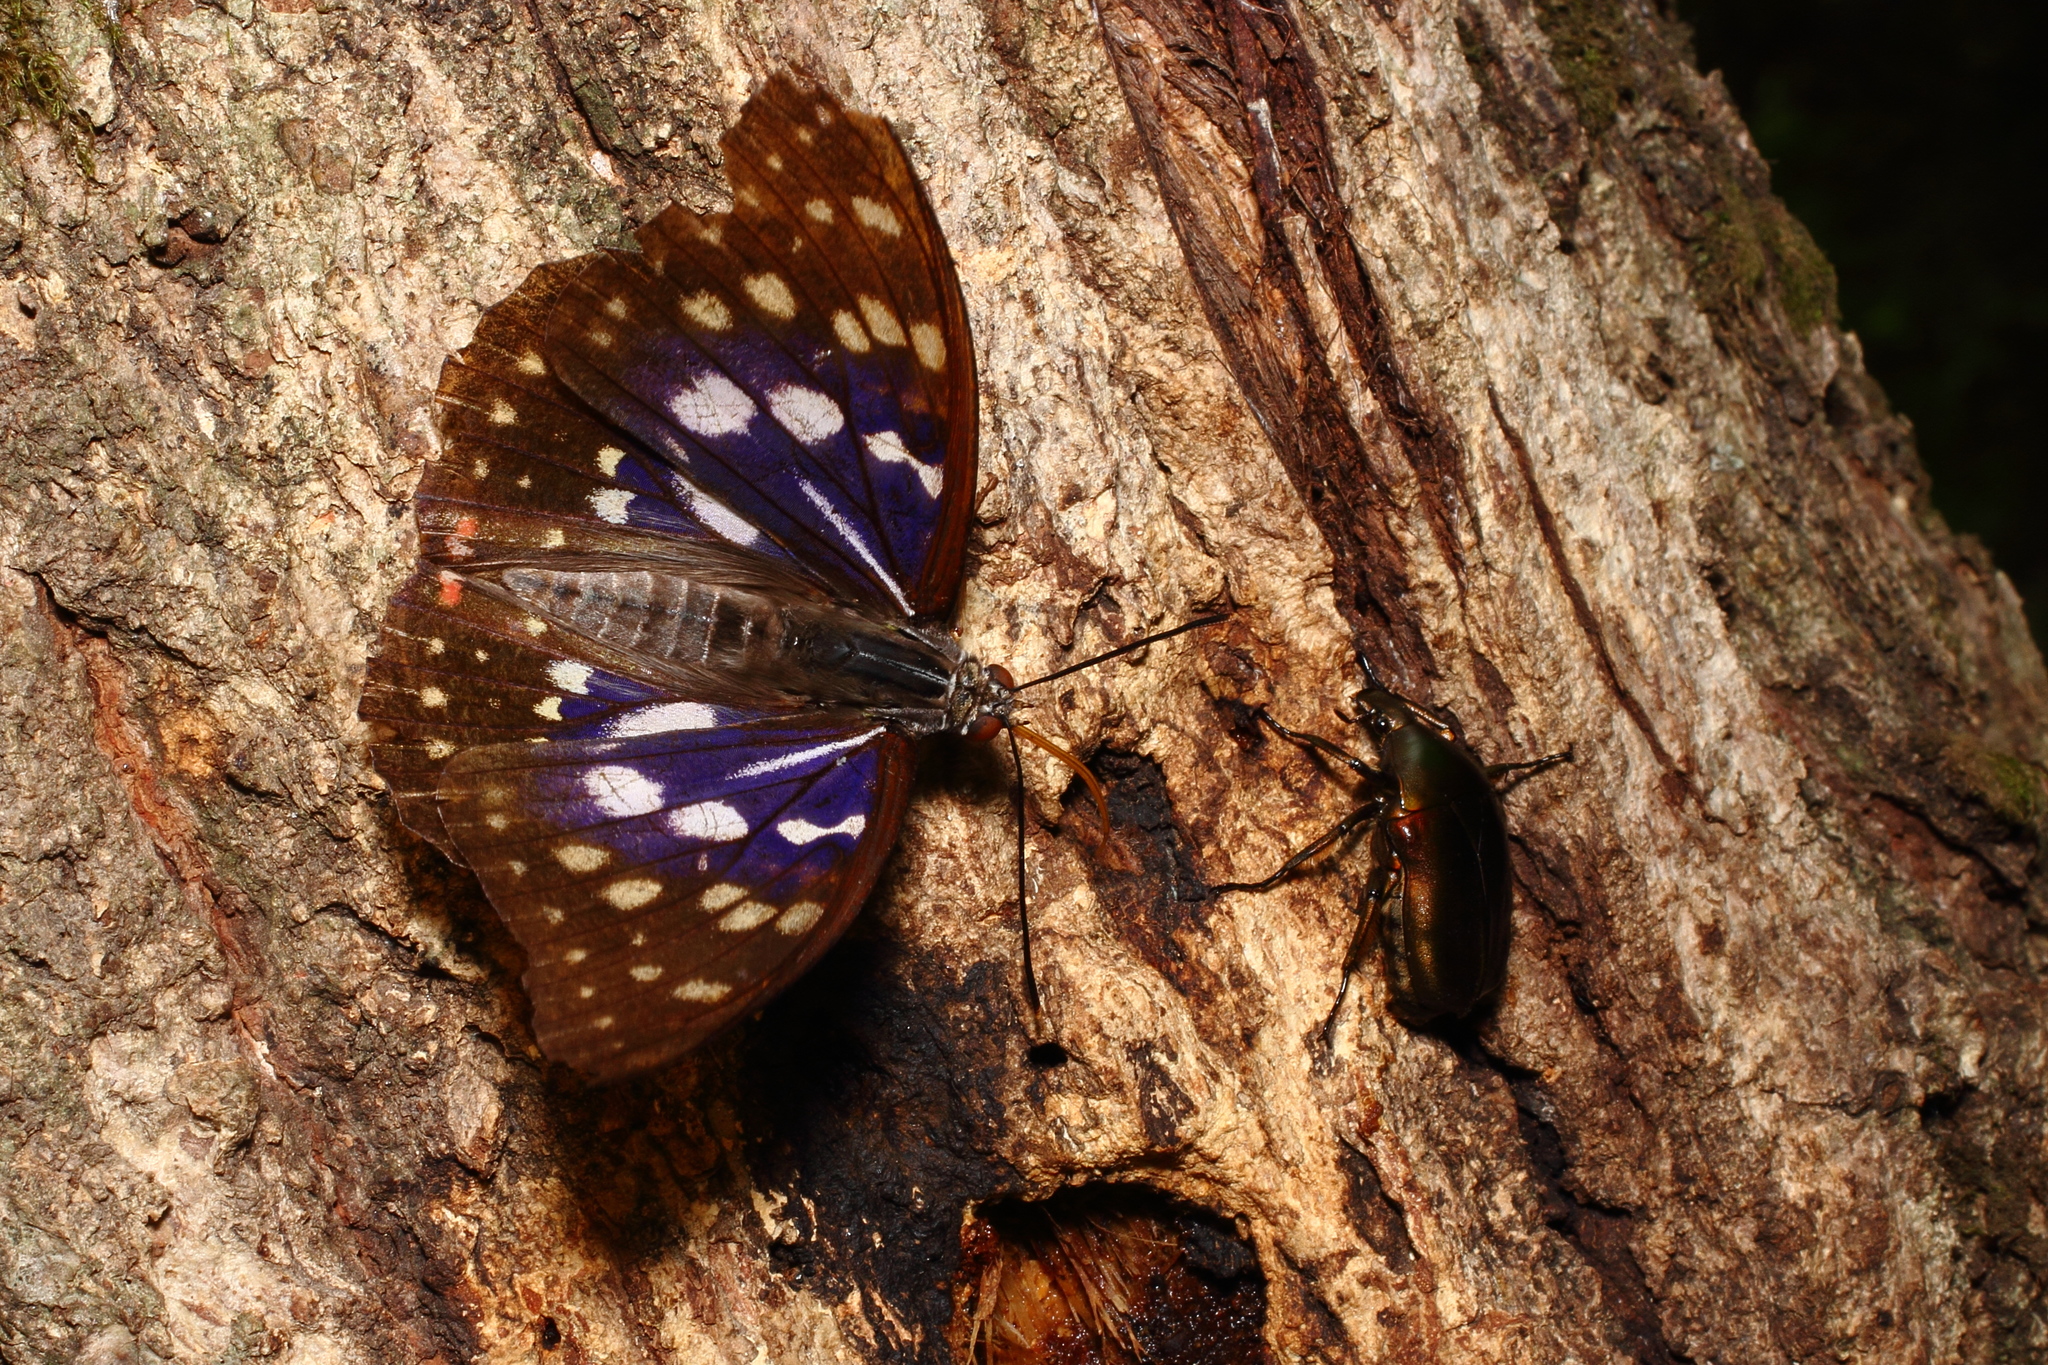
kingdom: Animalia
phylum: Arthropoda
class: Insecta
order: Lepidoptera
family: Nymphalidae
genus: Sasakia
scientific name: Sasakia charonda
